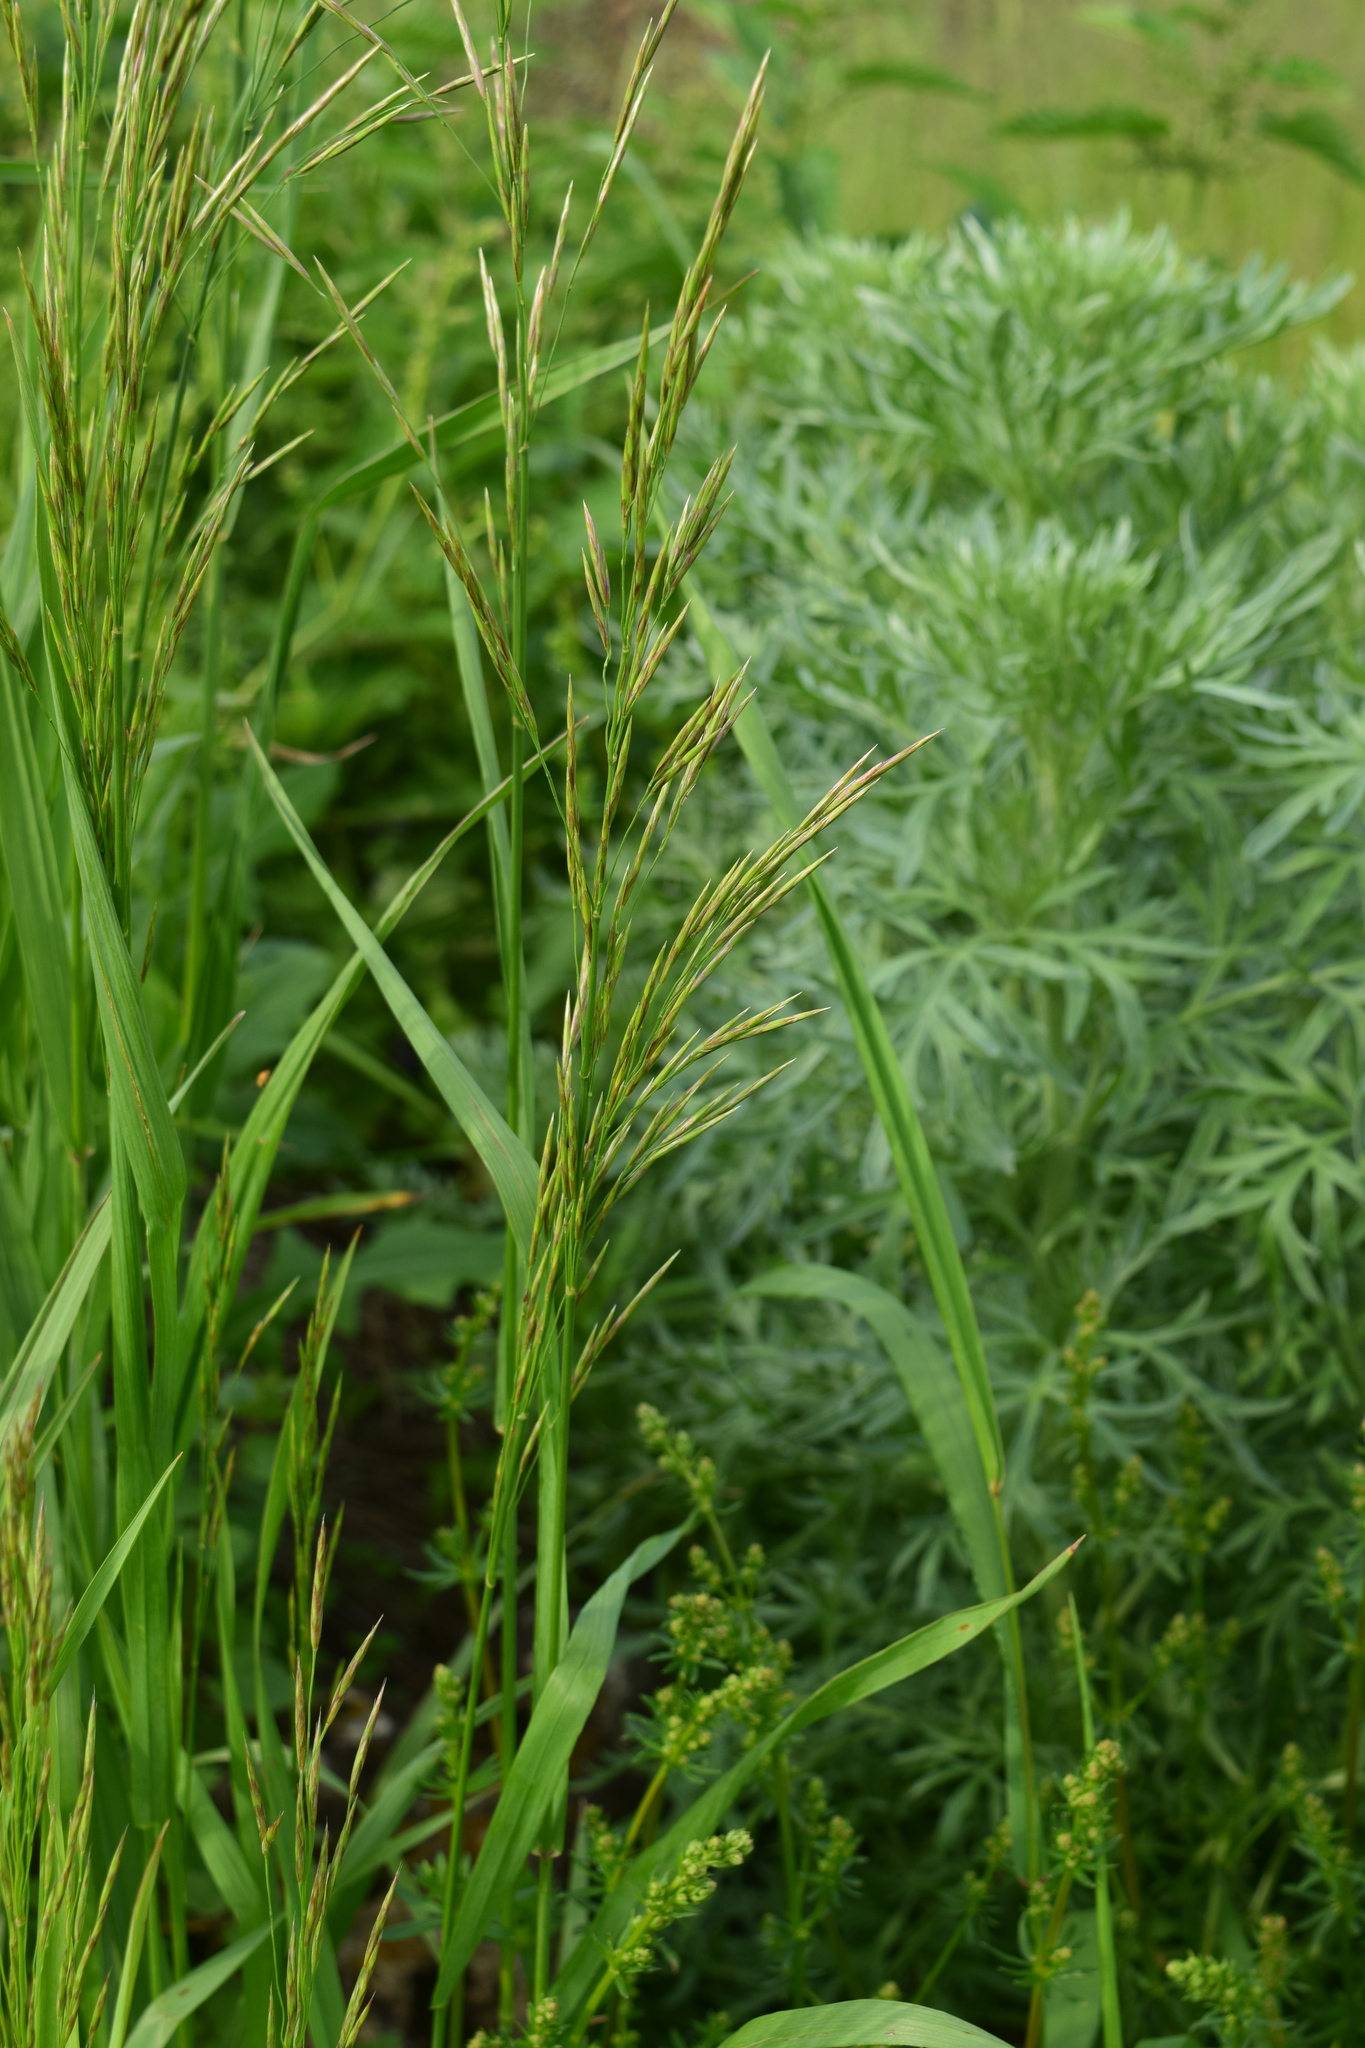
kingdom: Plantae
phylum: Tracheophyta
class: Liliopsida
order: Poales
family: Poaceae
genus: Bromus
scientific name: Bromus inermis
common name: Smooth brome
